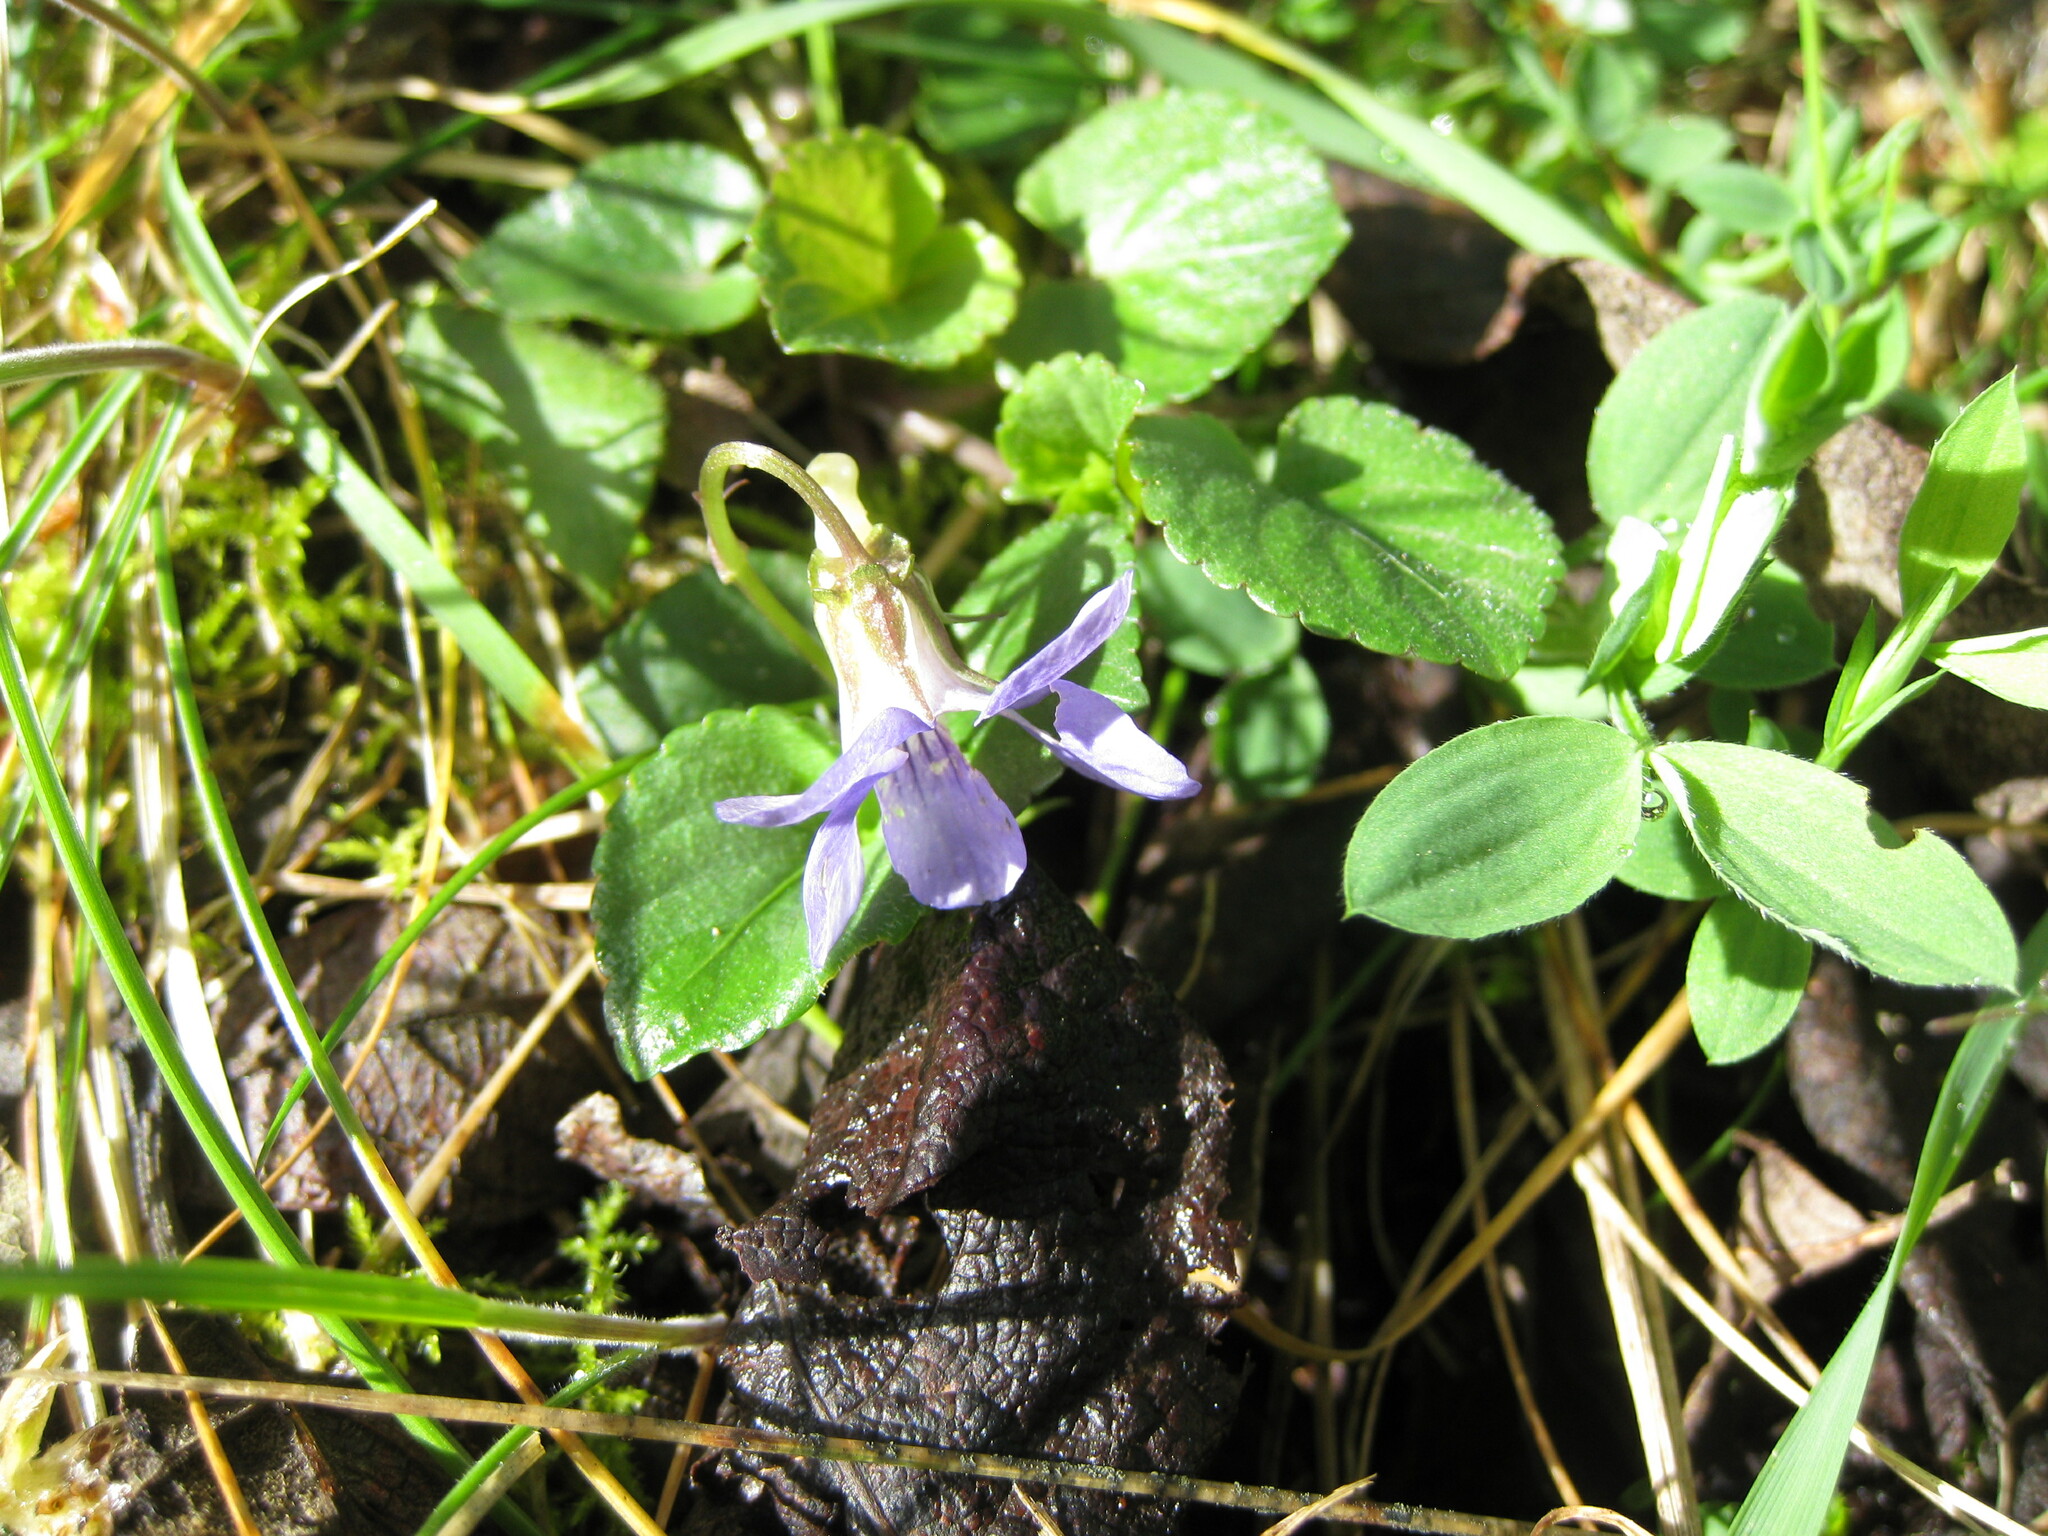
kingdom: Plantae
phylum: Tracheophyta
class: Magnoliopsida
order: Malpighiales
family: Violaceae
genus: Viola
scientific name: Viola riviniana
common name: Common dog-violet
